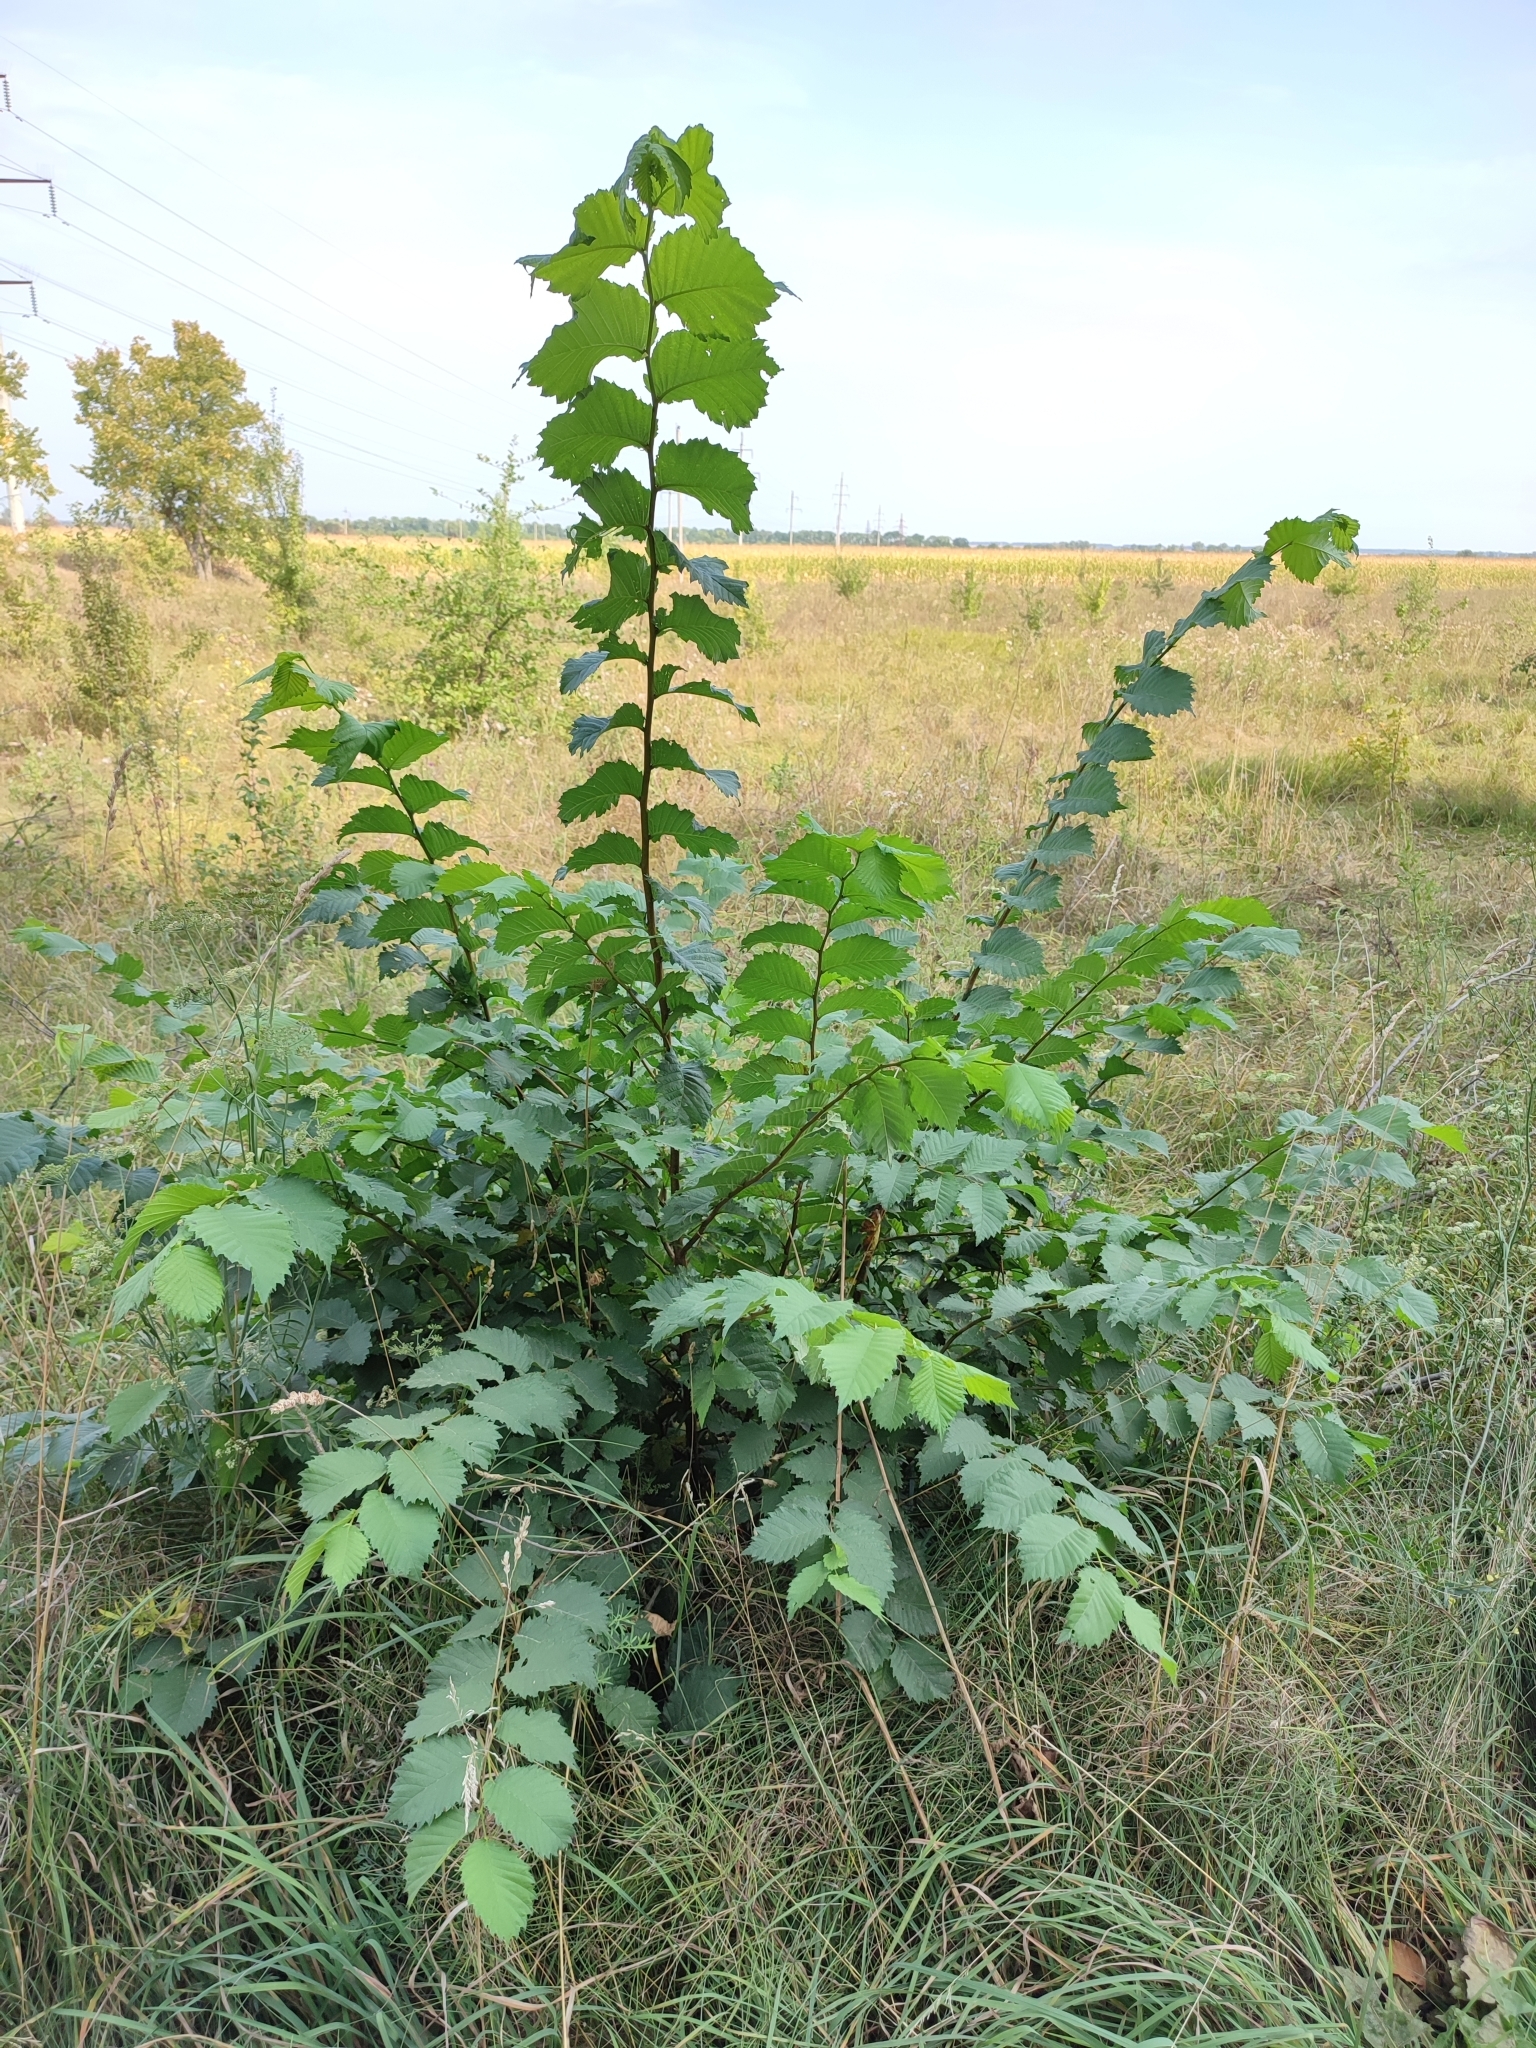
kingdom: Plantae
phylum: Tracheophyta
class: Magnoliopsida
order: Rosales
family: Ulmaceae
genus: Ulmus
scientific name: Ulmus laevis
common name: European white-elm
